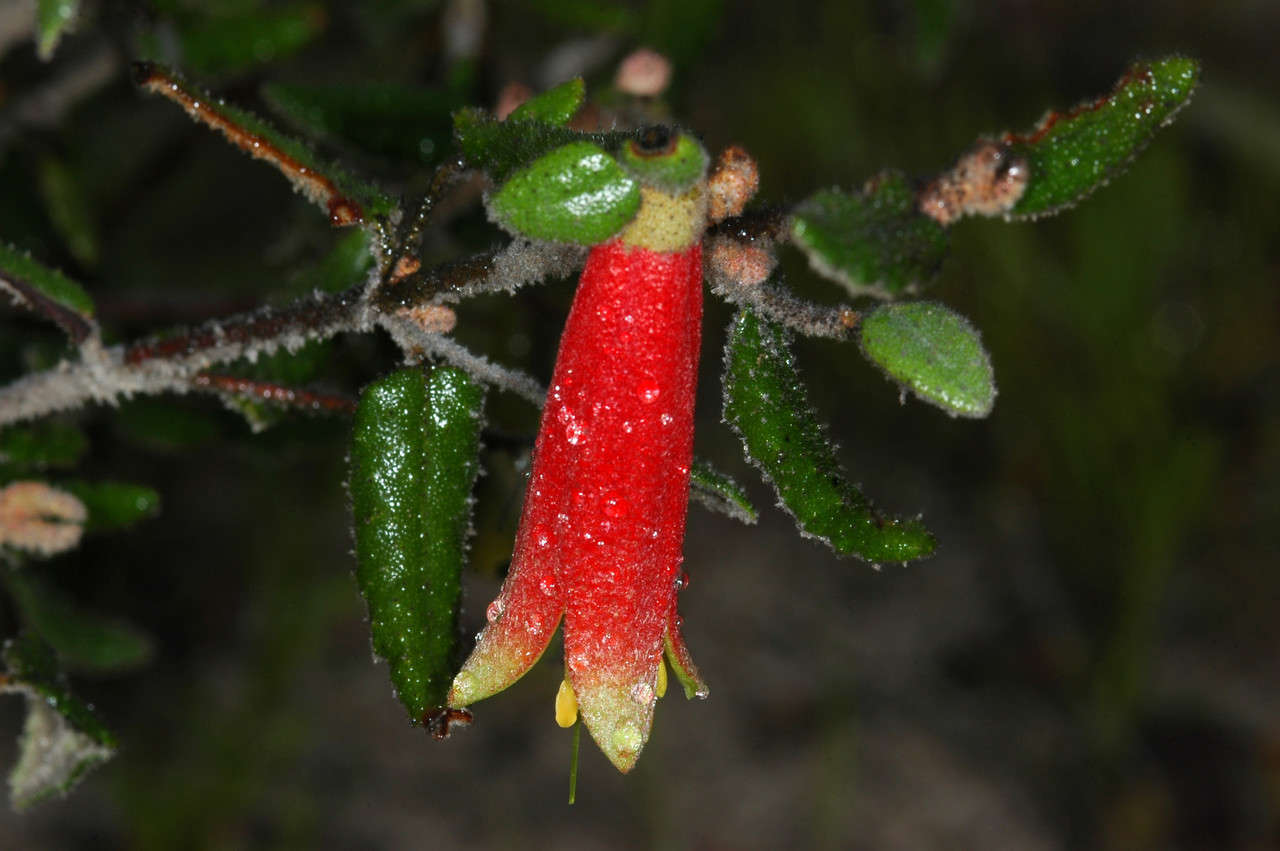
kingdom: Plantae
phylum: Tracheophyta
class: Magnoliopsida
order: Sapindales
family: Rutaceae
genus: Correa
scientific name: Correa reflexa
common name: Common correa
